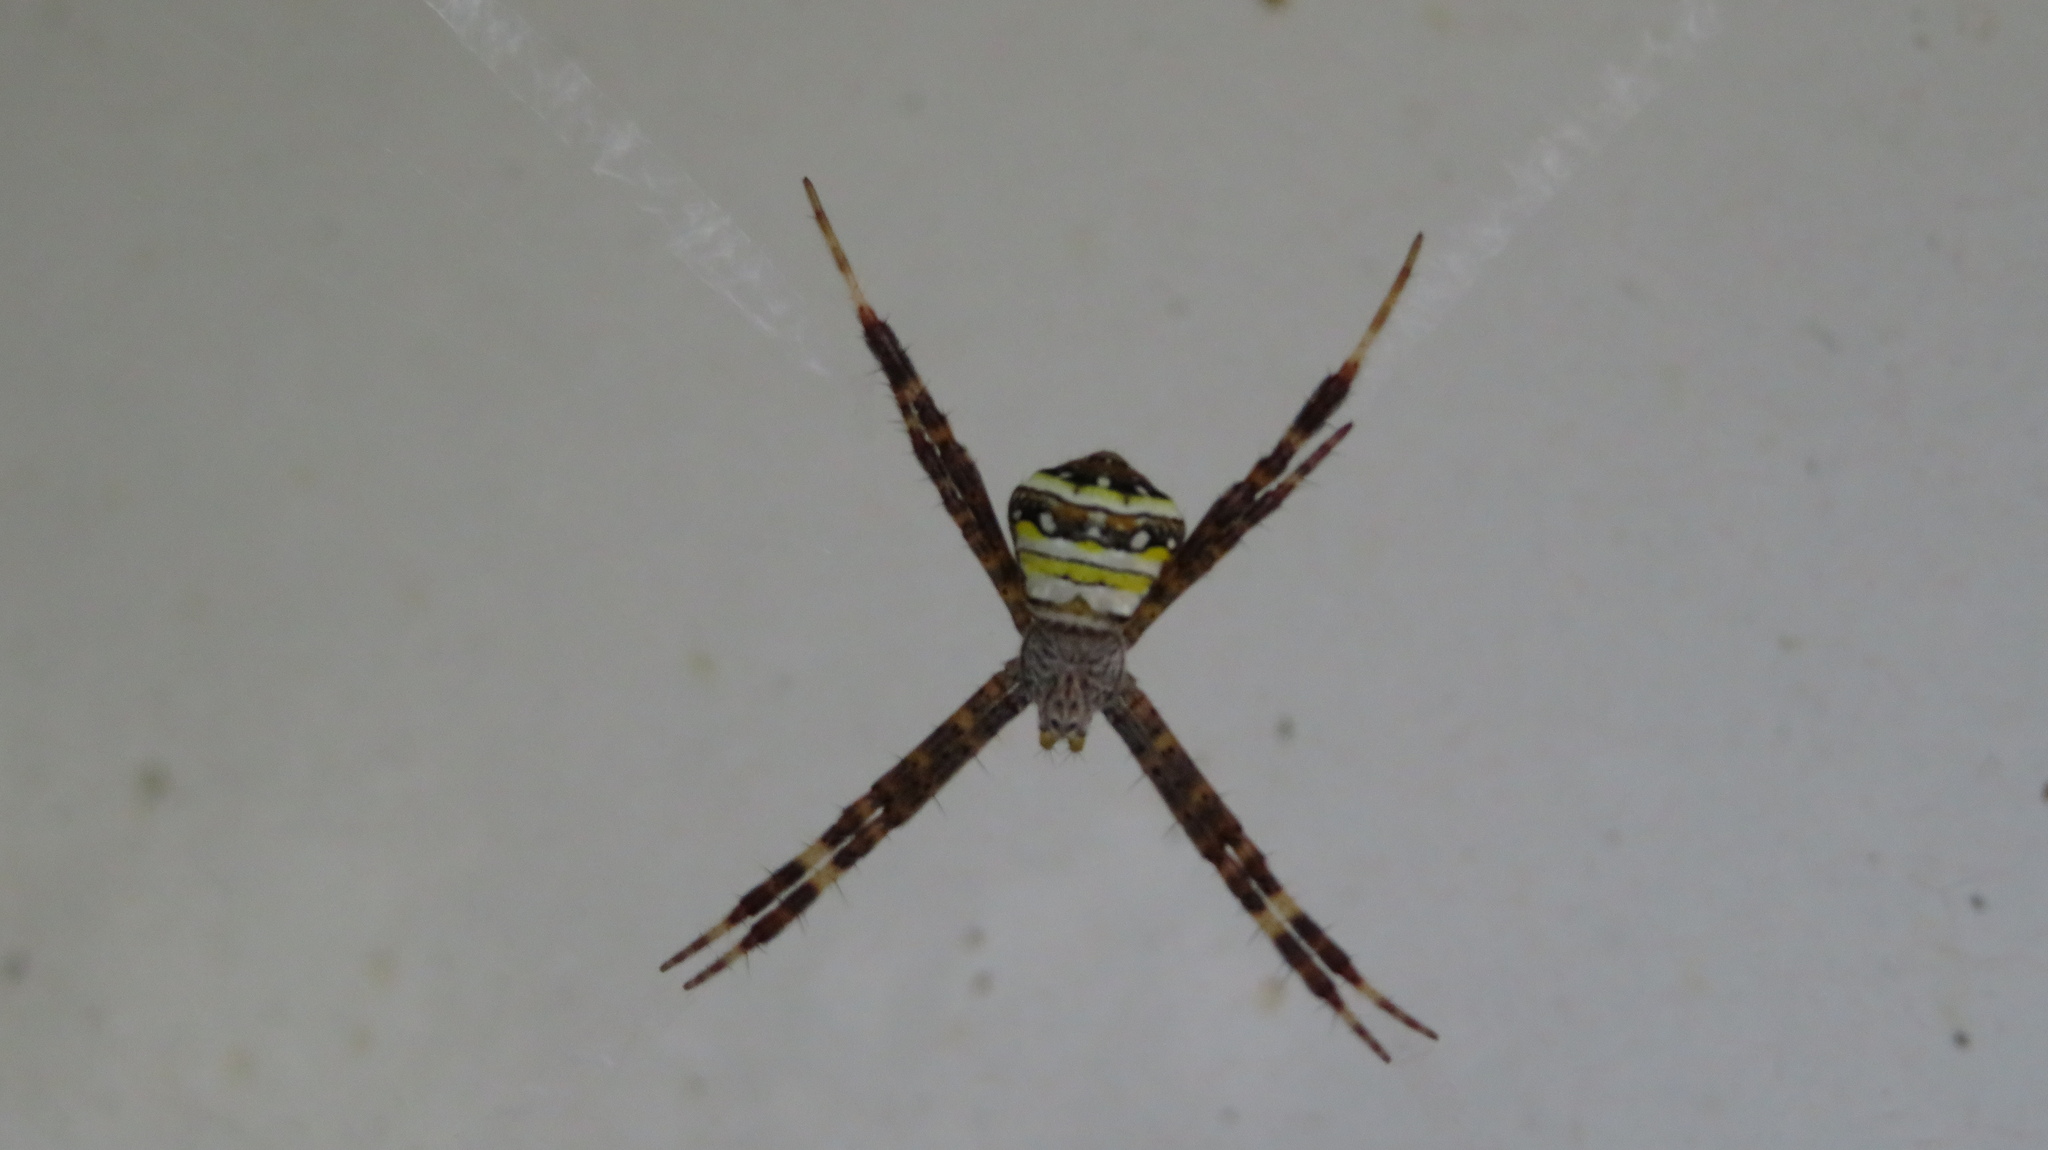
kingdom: Animalia
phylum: Arthropoda
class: Arachnida
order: Araneae
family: Araneidae
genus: Argiope
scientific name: Argiope minuta
